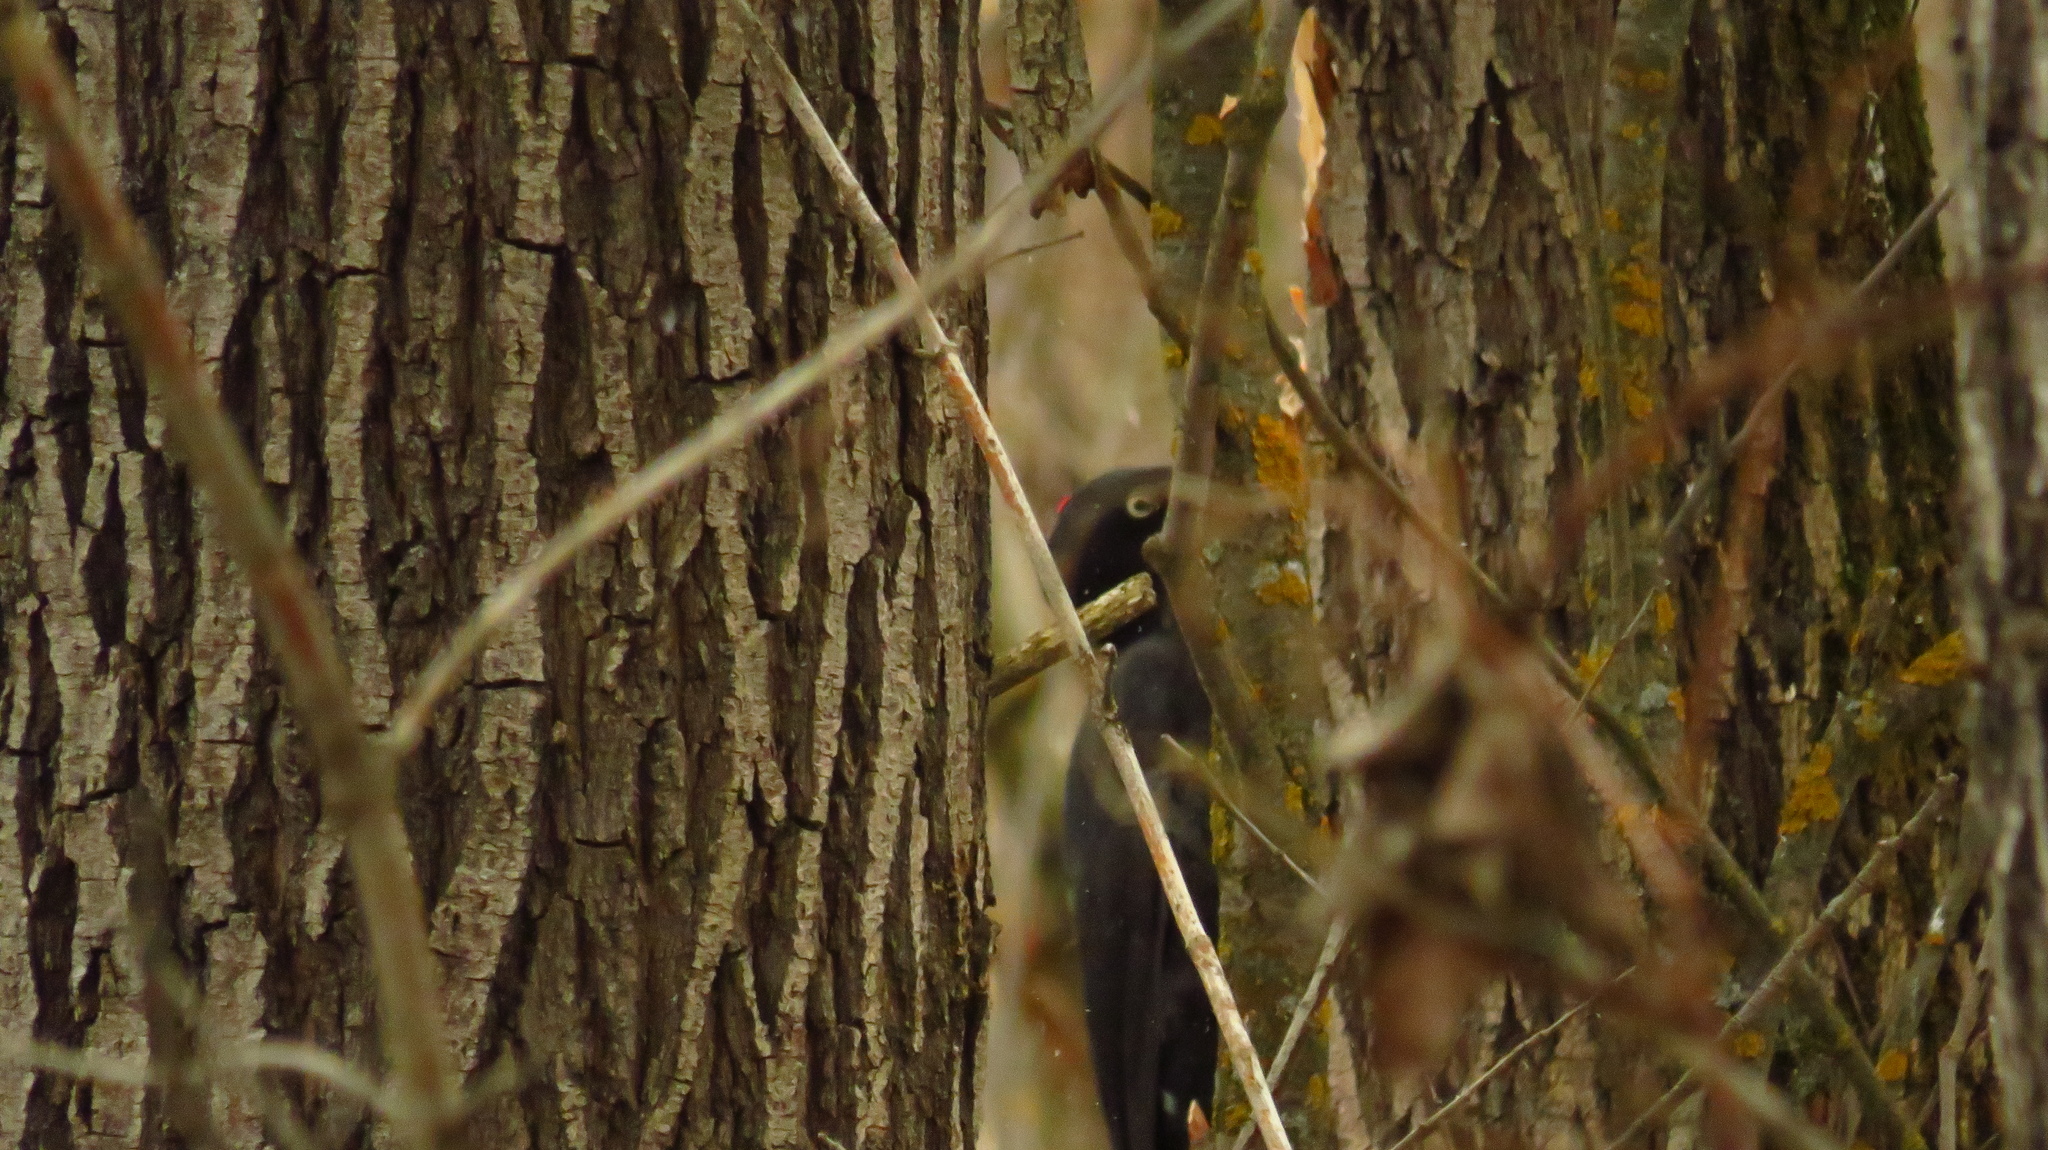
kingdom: Animalia
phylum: Chordata
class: Aves
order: Piciformes
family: Picidae
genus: Dryocopus
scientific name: Dryocopus martius
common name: Black woodpecker
